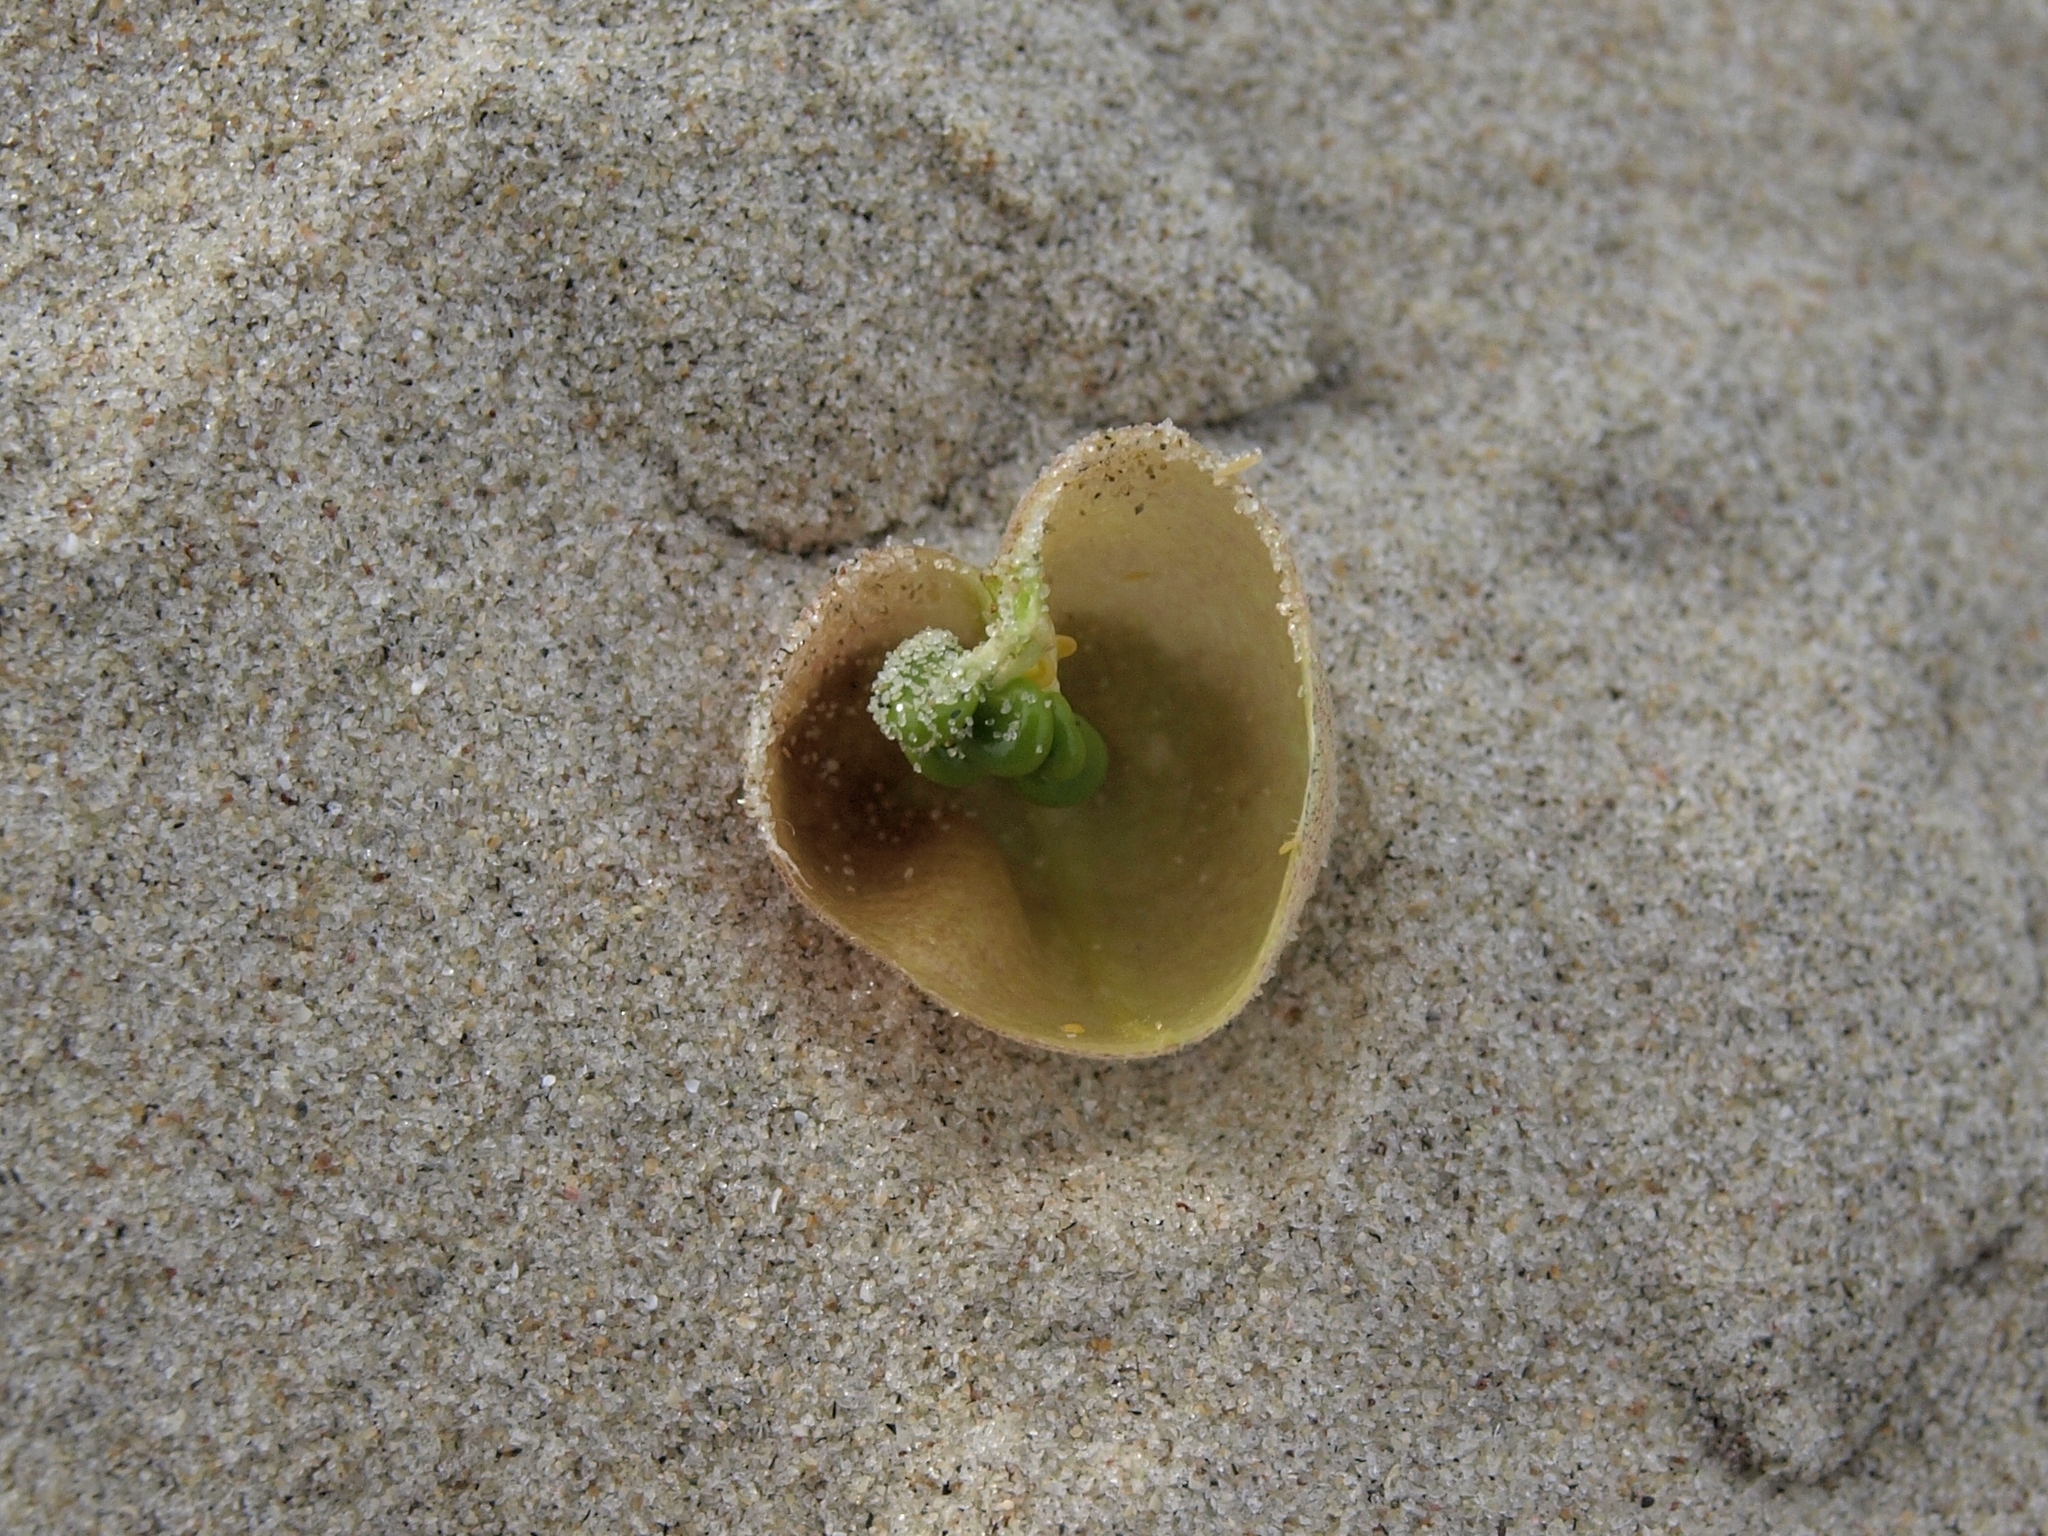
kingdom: Plantae
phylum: Tracheophyta
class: Magnoliopsida
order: Fabales
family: Fabaceae
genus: Astragalus
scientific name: Astragalus magdalenae
